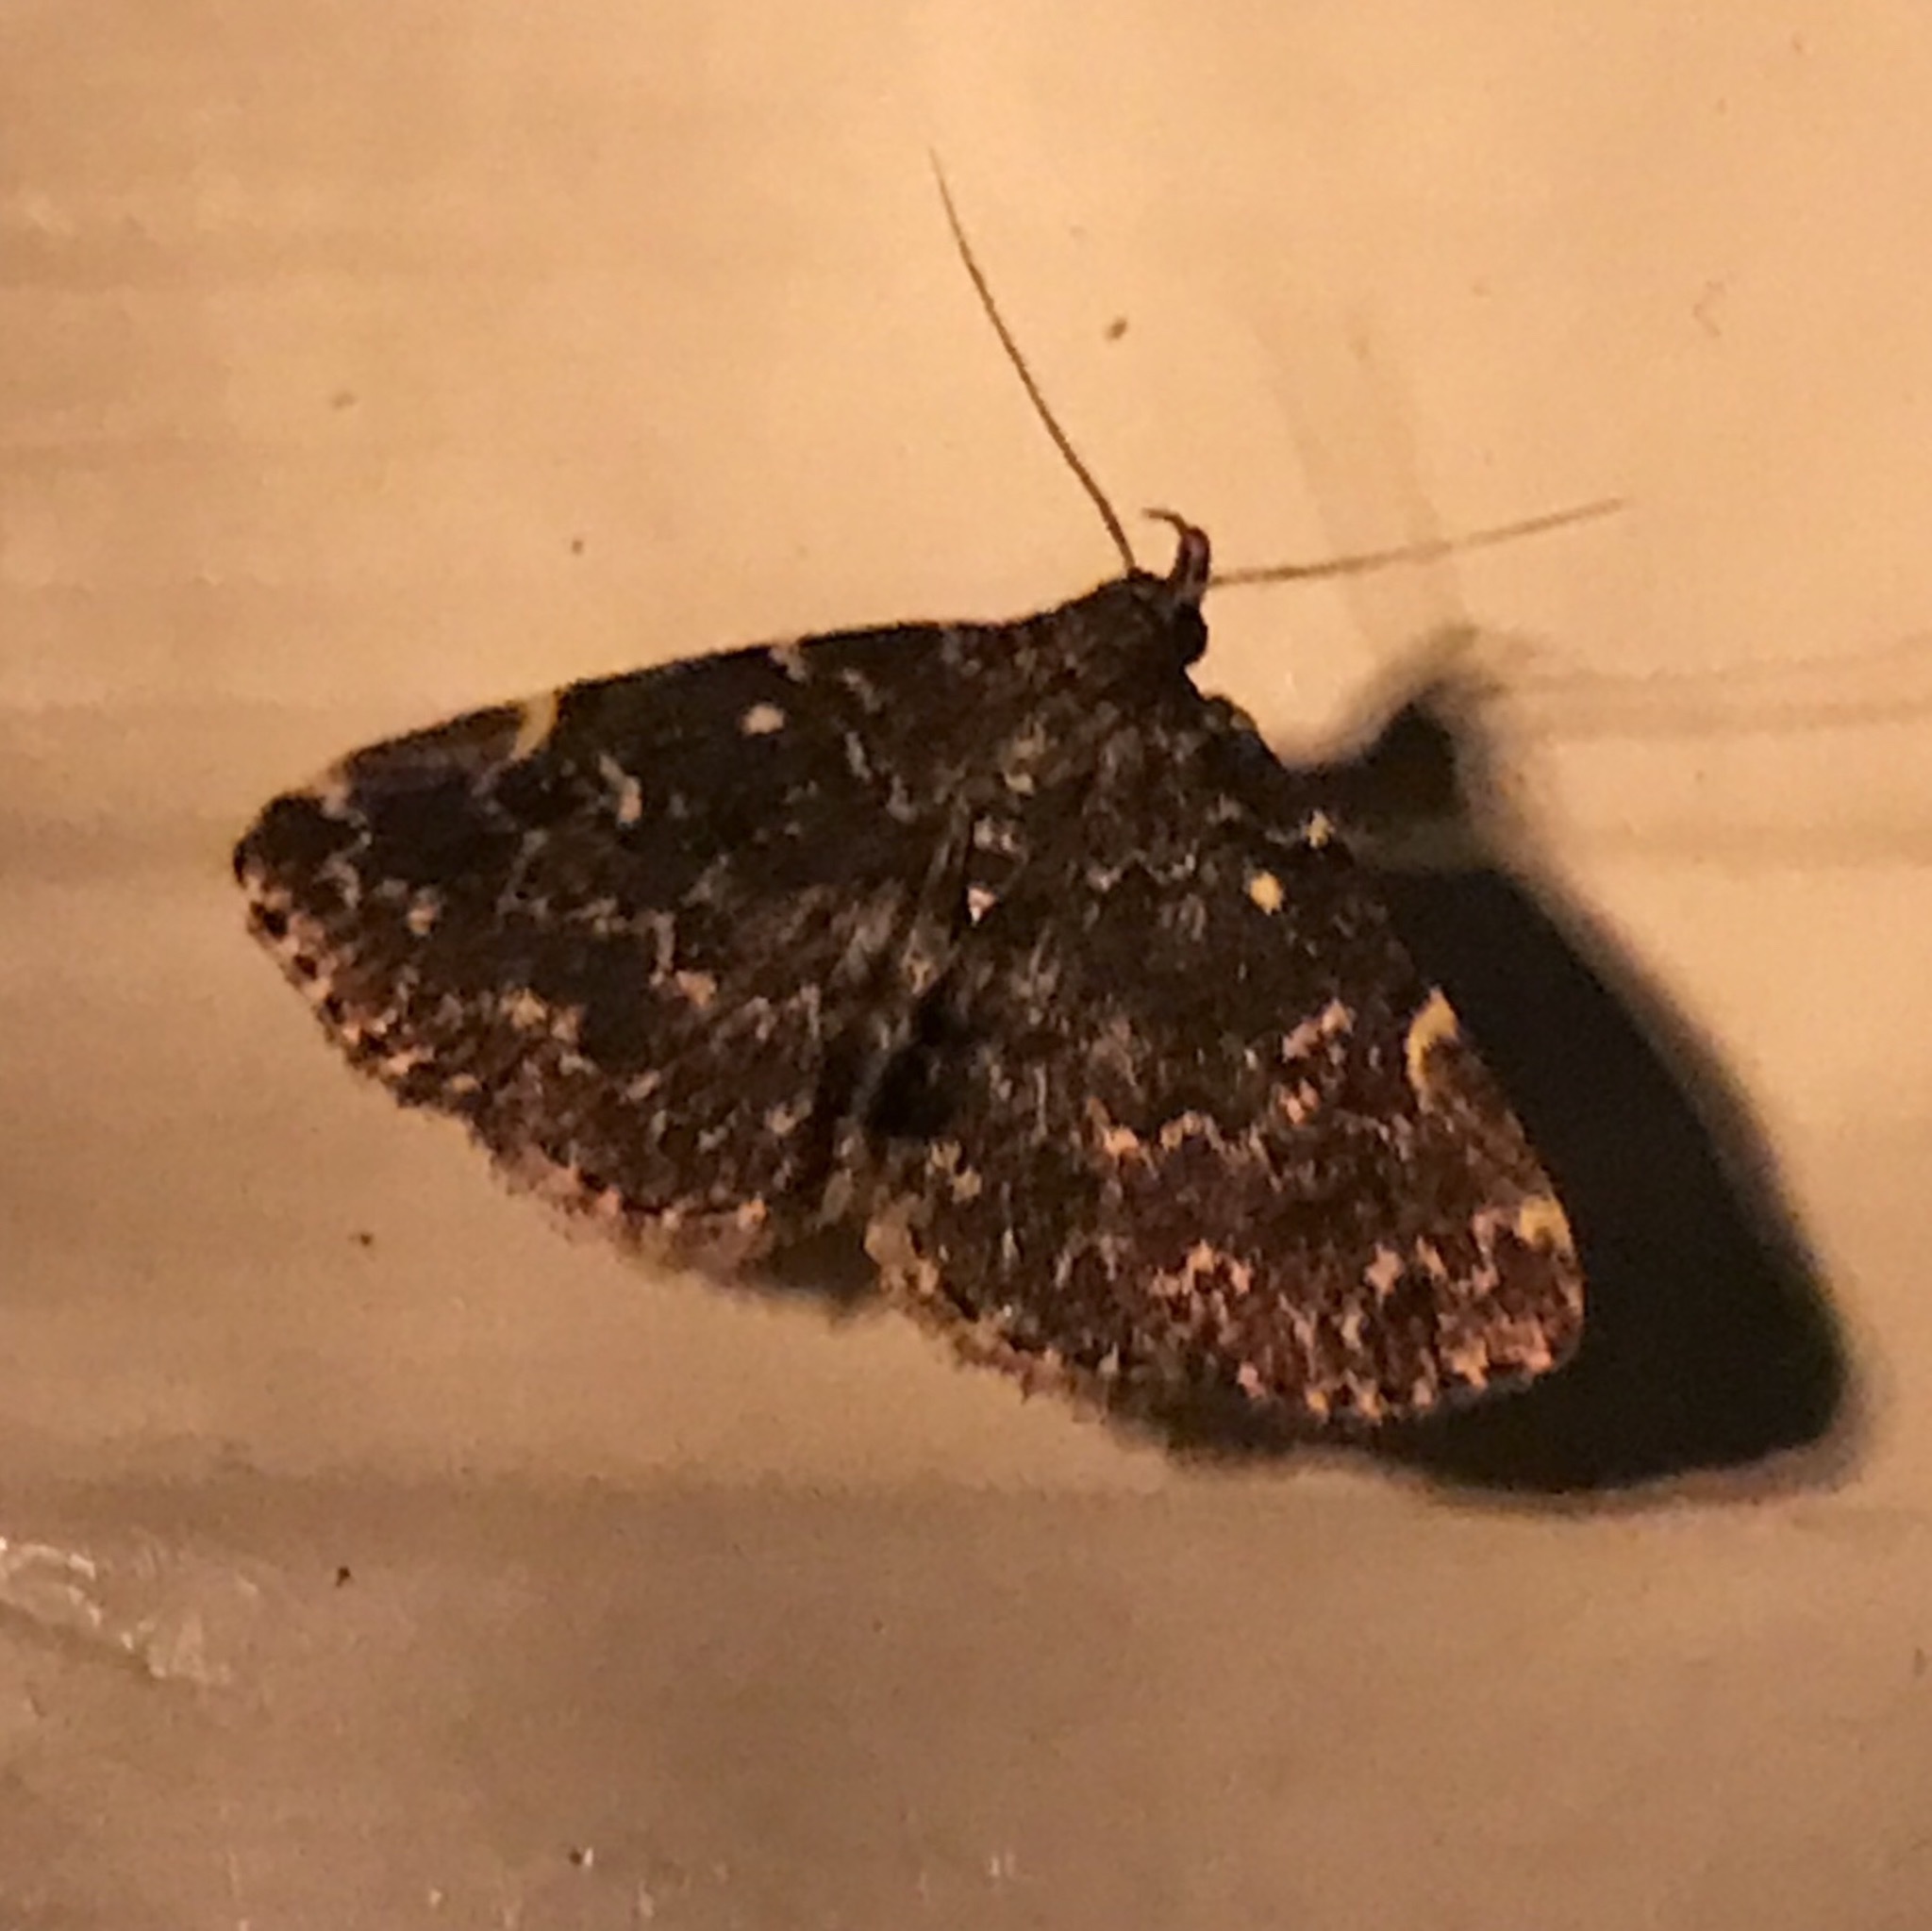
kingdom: Animalia
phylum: Arthropoda
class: Insecta
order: Lepidoptera
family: Erebidae
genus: Idia
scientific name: Idia scobialis
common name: Smoky idia moth
